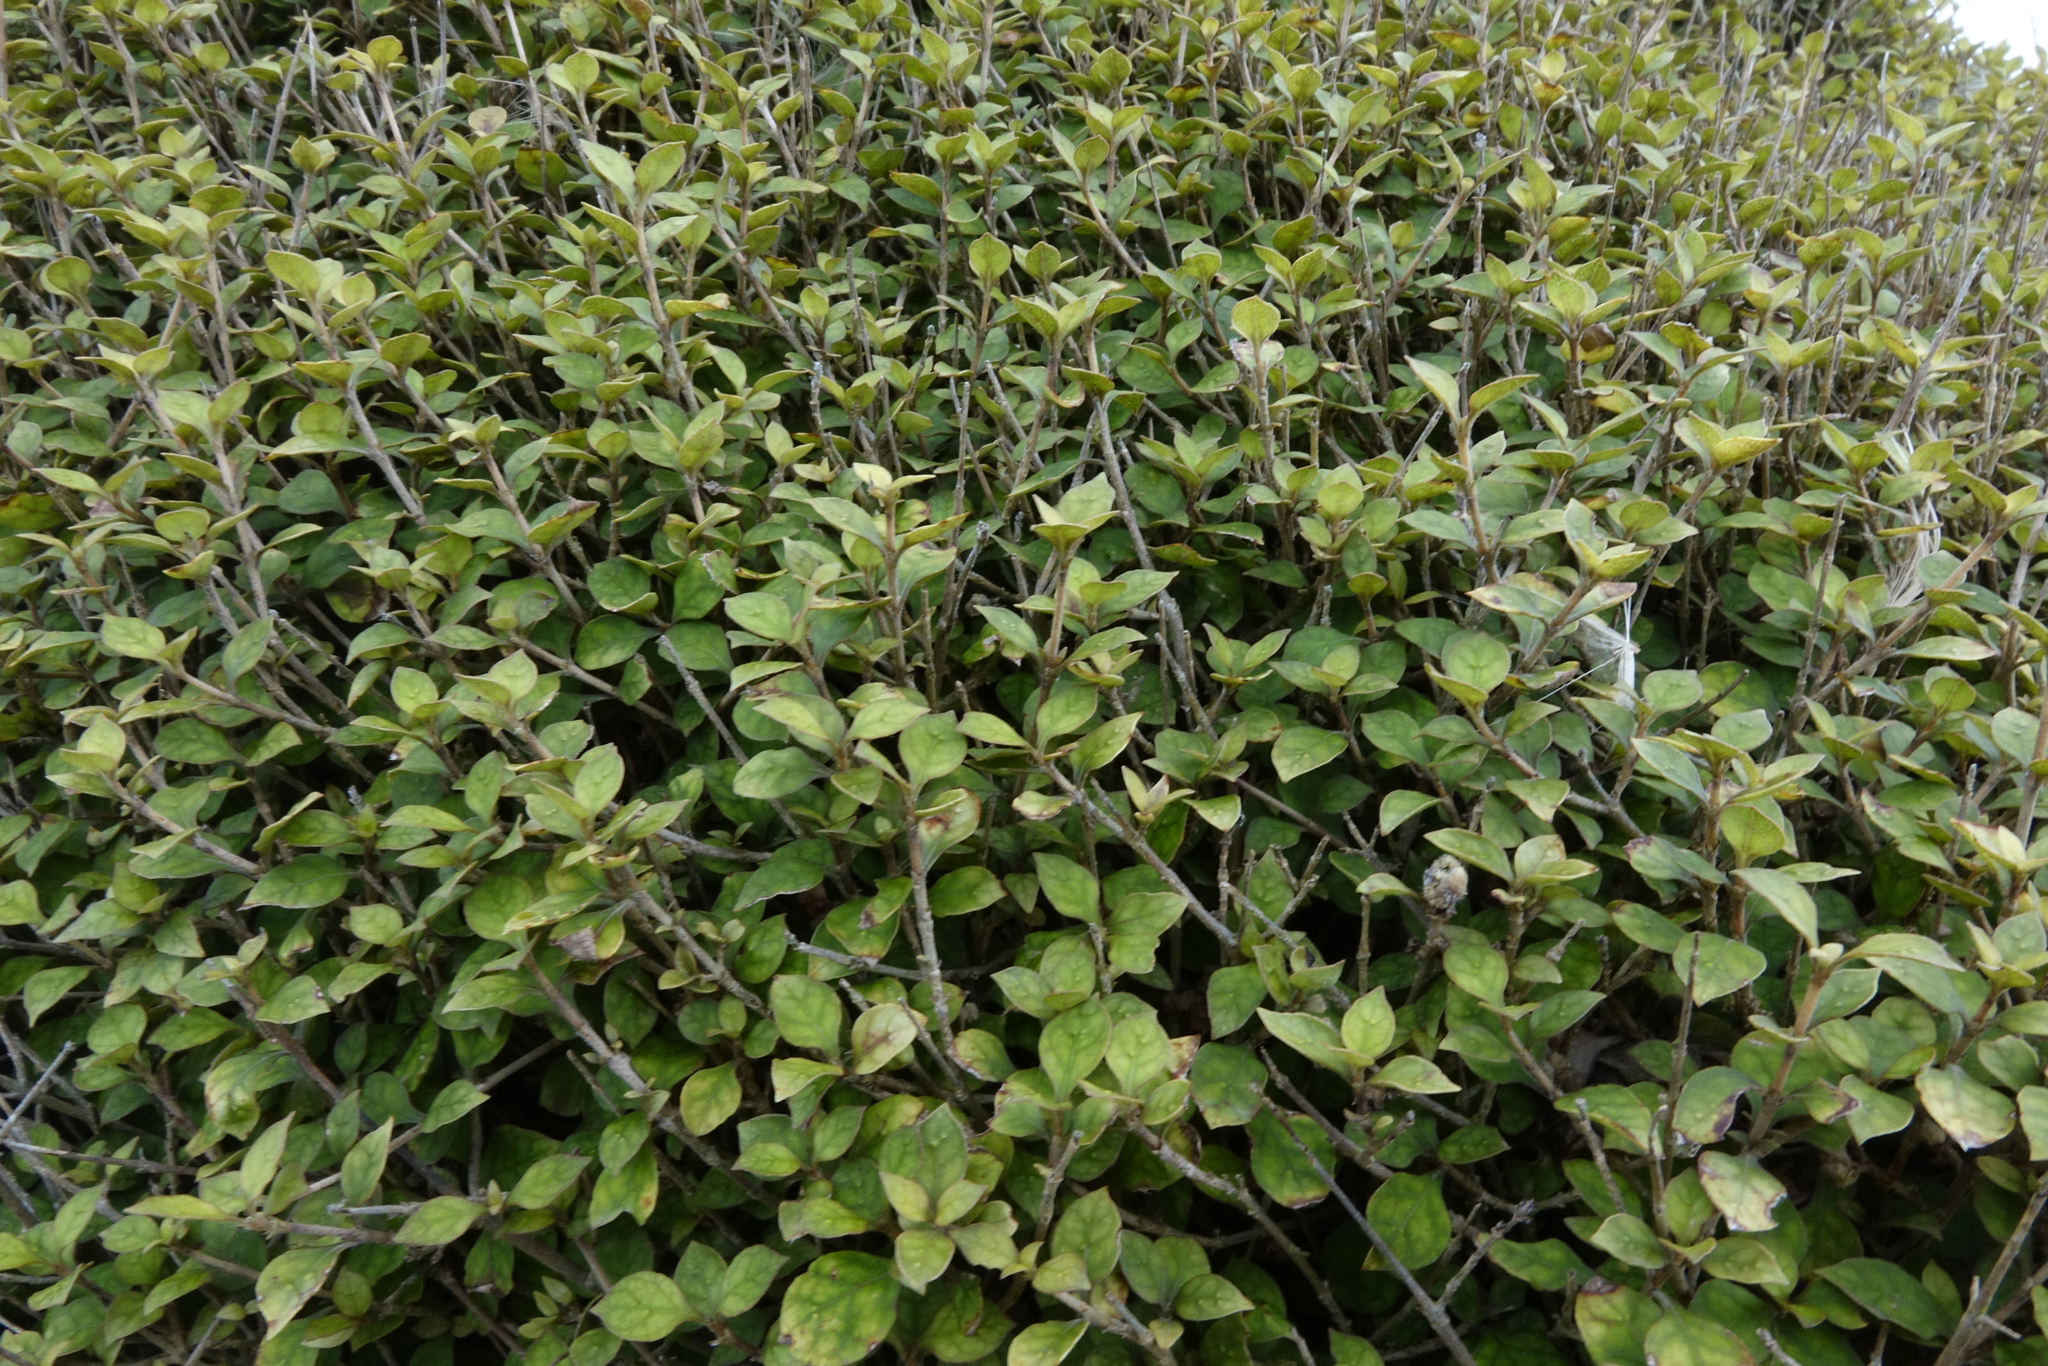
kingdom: Plantae
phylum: Tracheophyta
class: Magnoliopsida
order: Gentianales
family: Rubiaceae
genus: Coprosma
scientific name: Coprosma areolata
